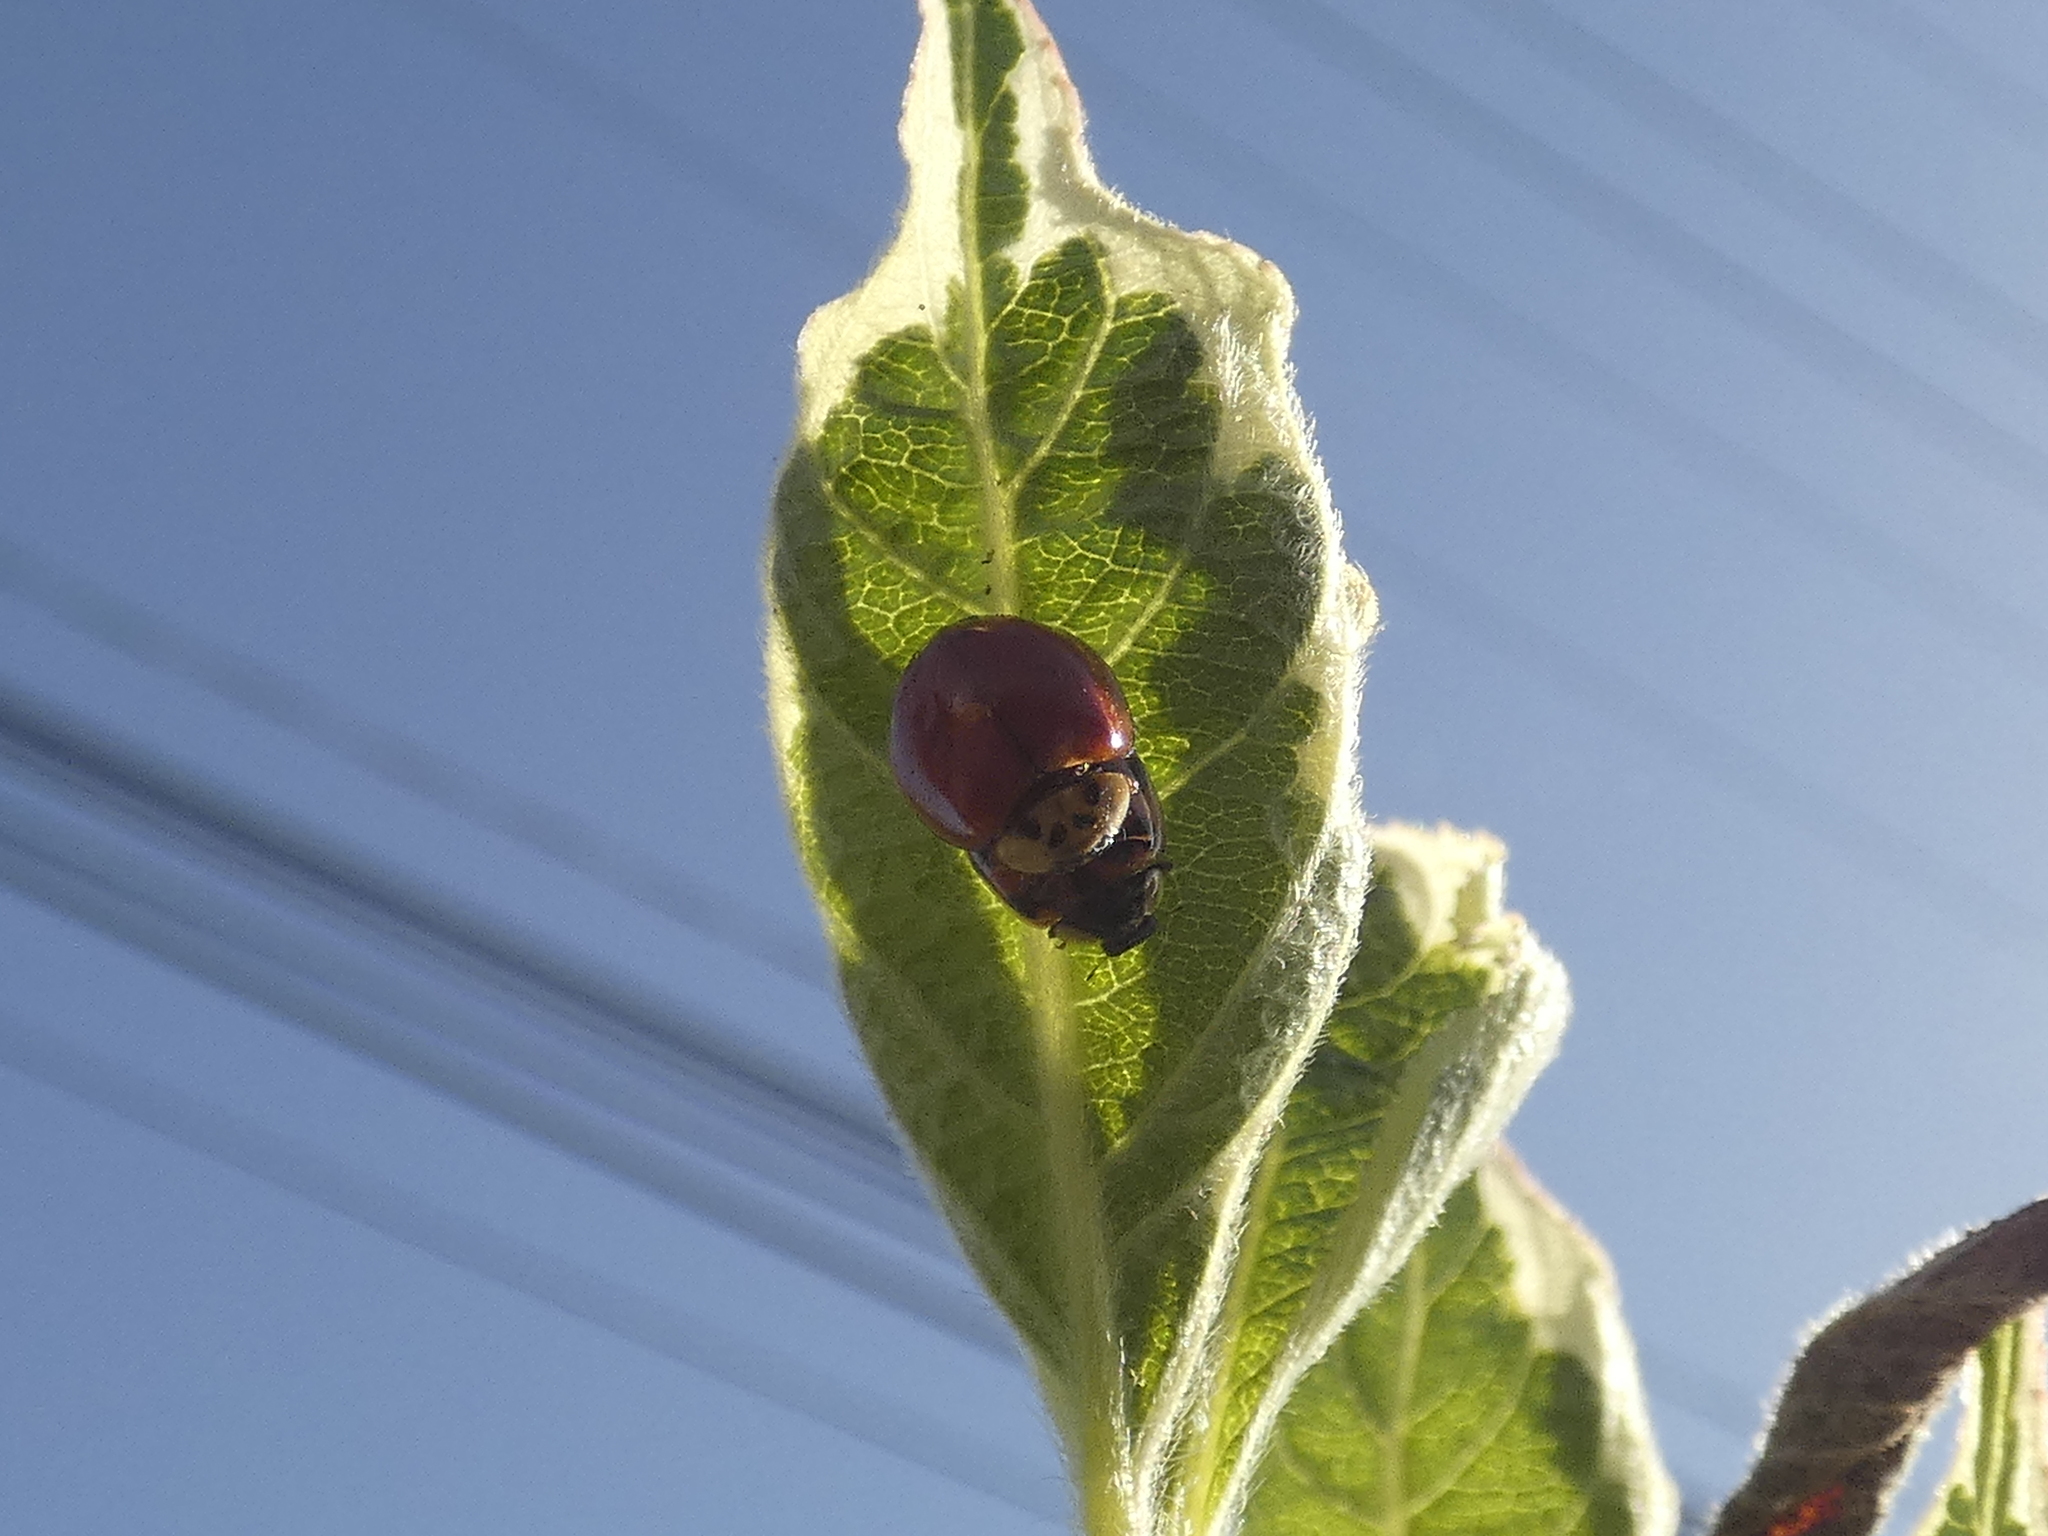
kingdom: Animalia
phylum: Arthropoda
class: Insecta
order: Coleoptera
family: Coccinellidae
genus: Harmonia
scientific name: Harmonia axyridis
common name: Harlequin ladybird
